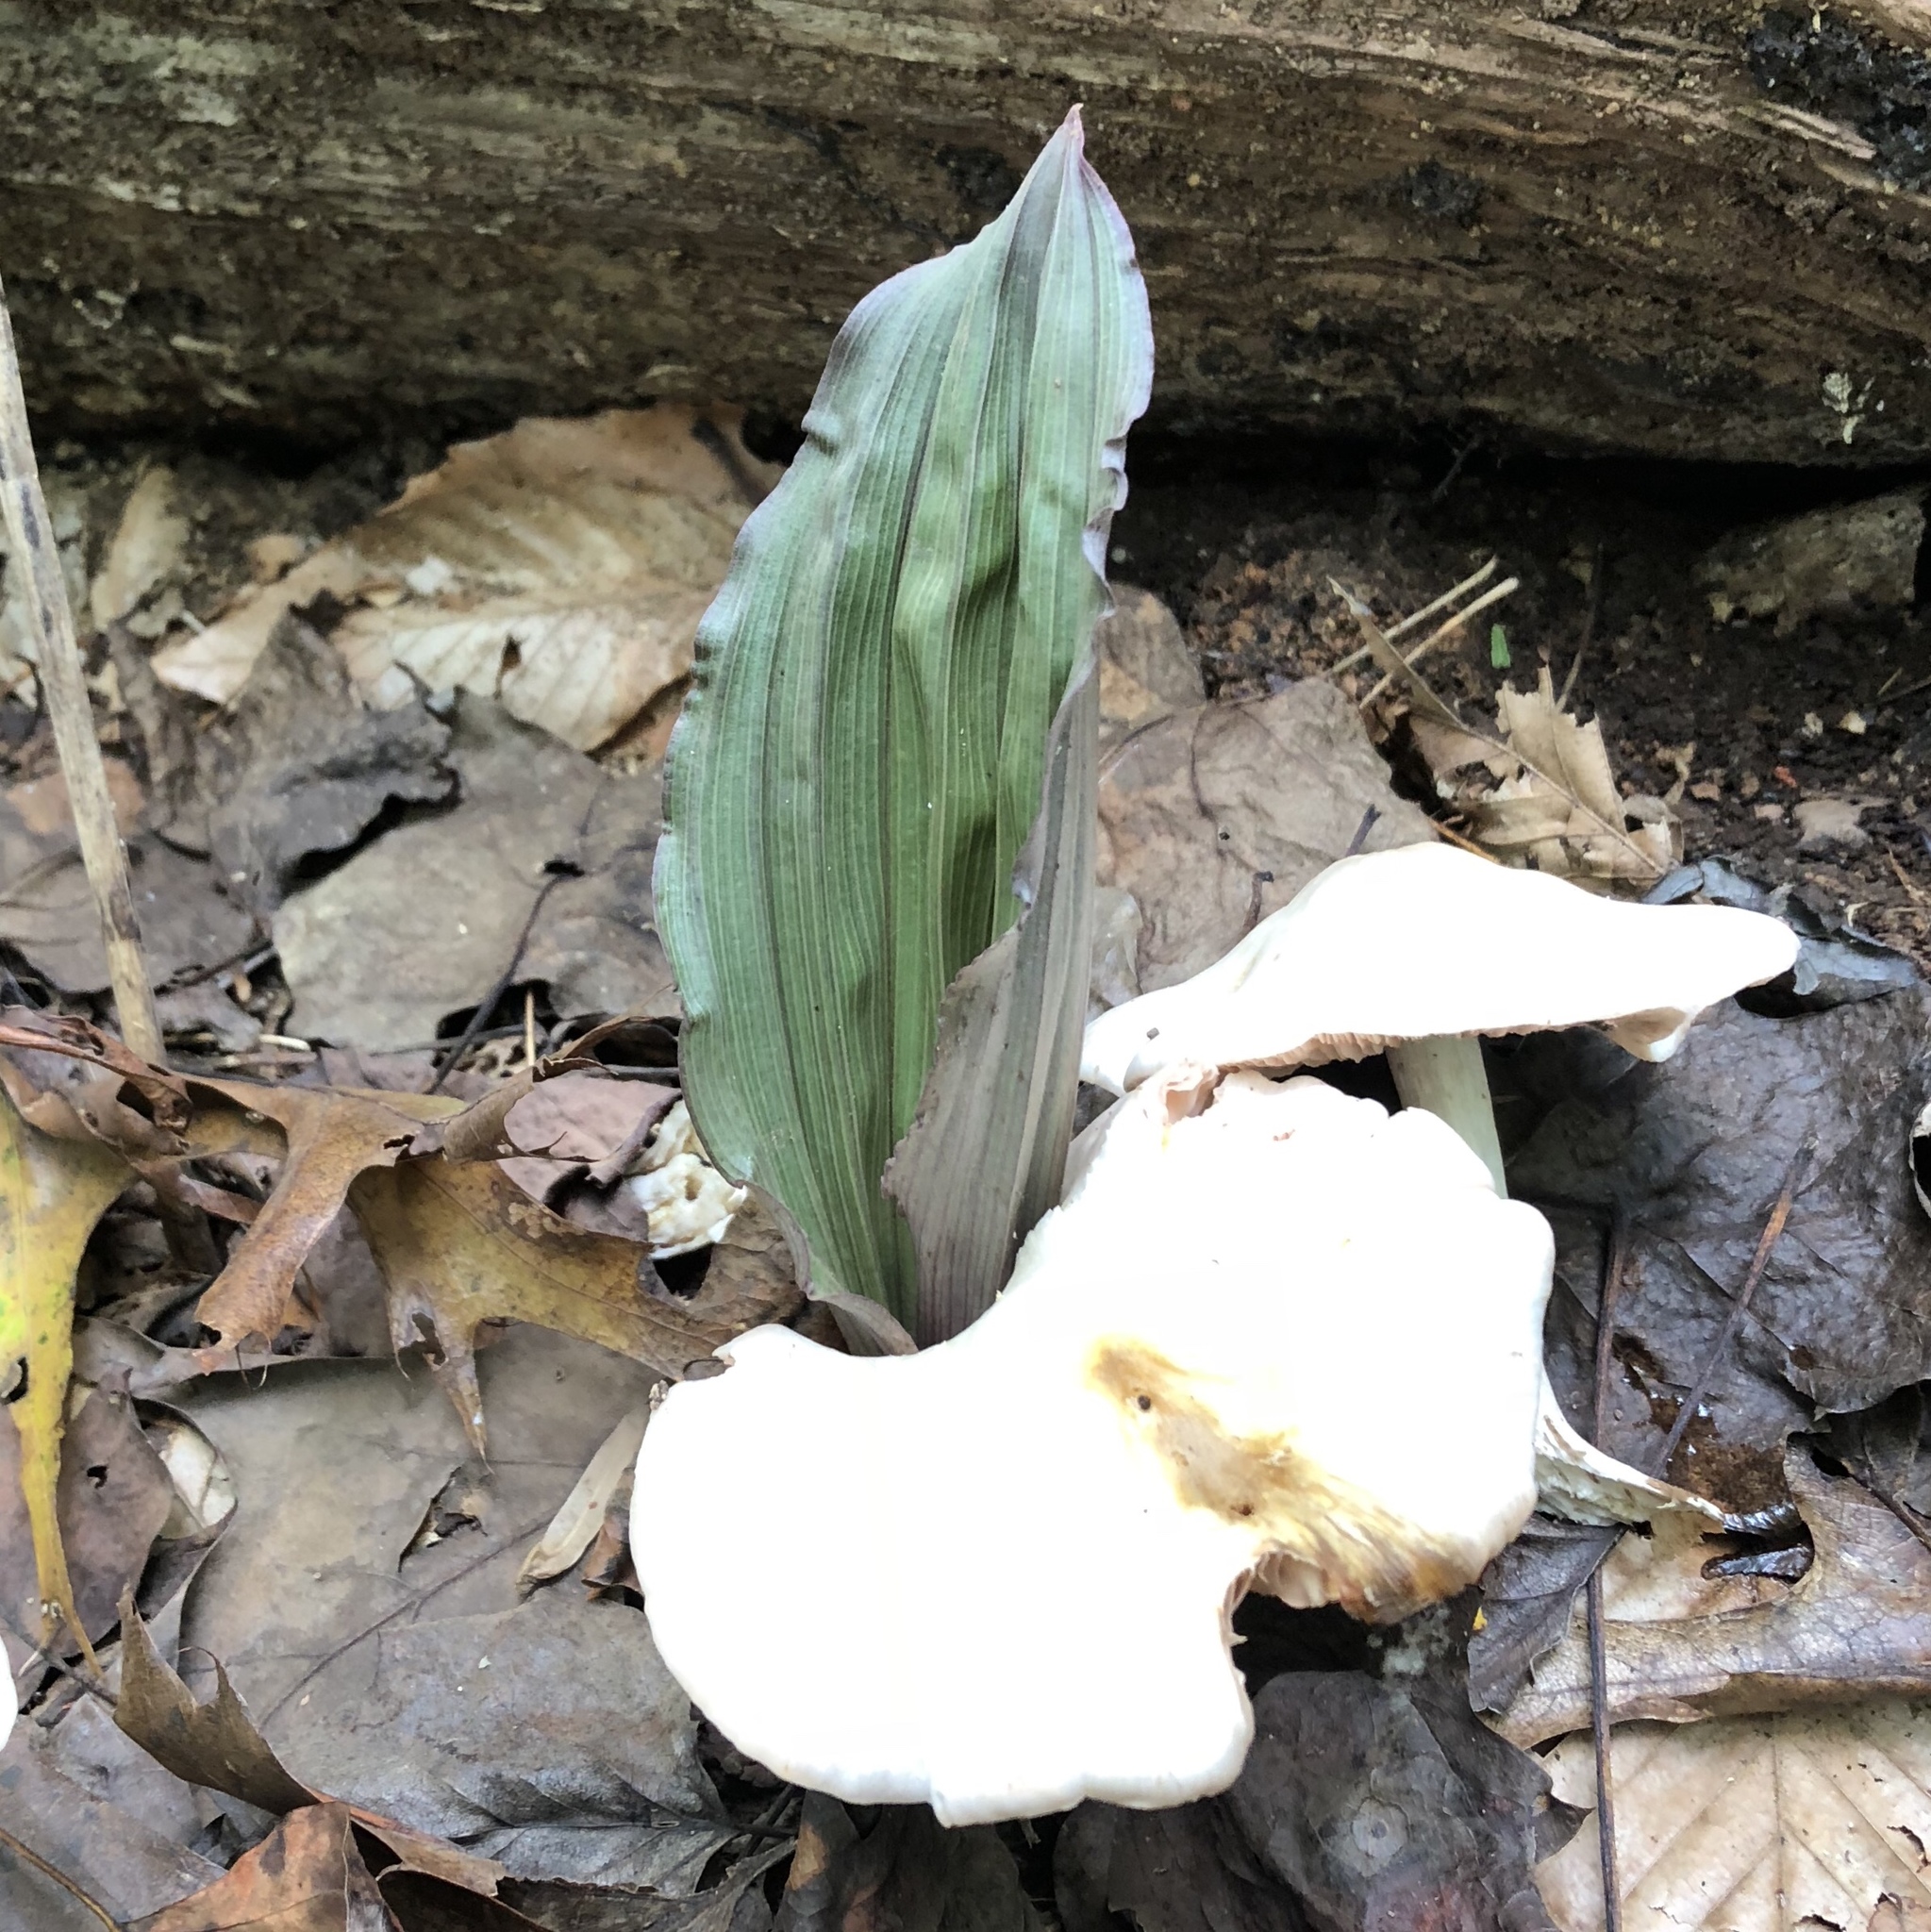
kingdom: Plantae
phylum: Tracheophyta
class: Liliopsida
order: Asparagales
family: Orchidaceae
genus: Aplectrum
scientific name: Aplectrum hyemale
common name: Adam-and-eve
